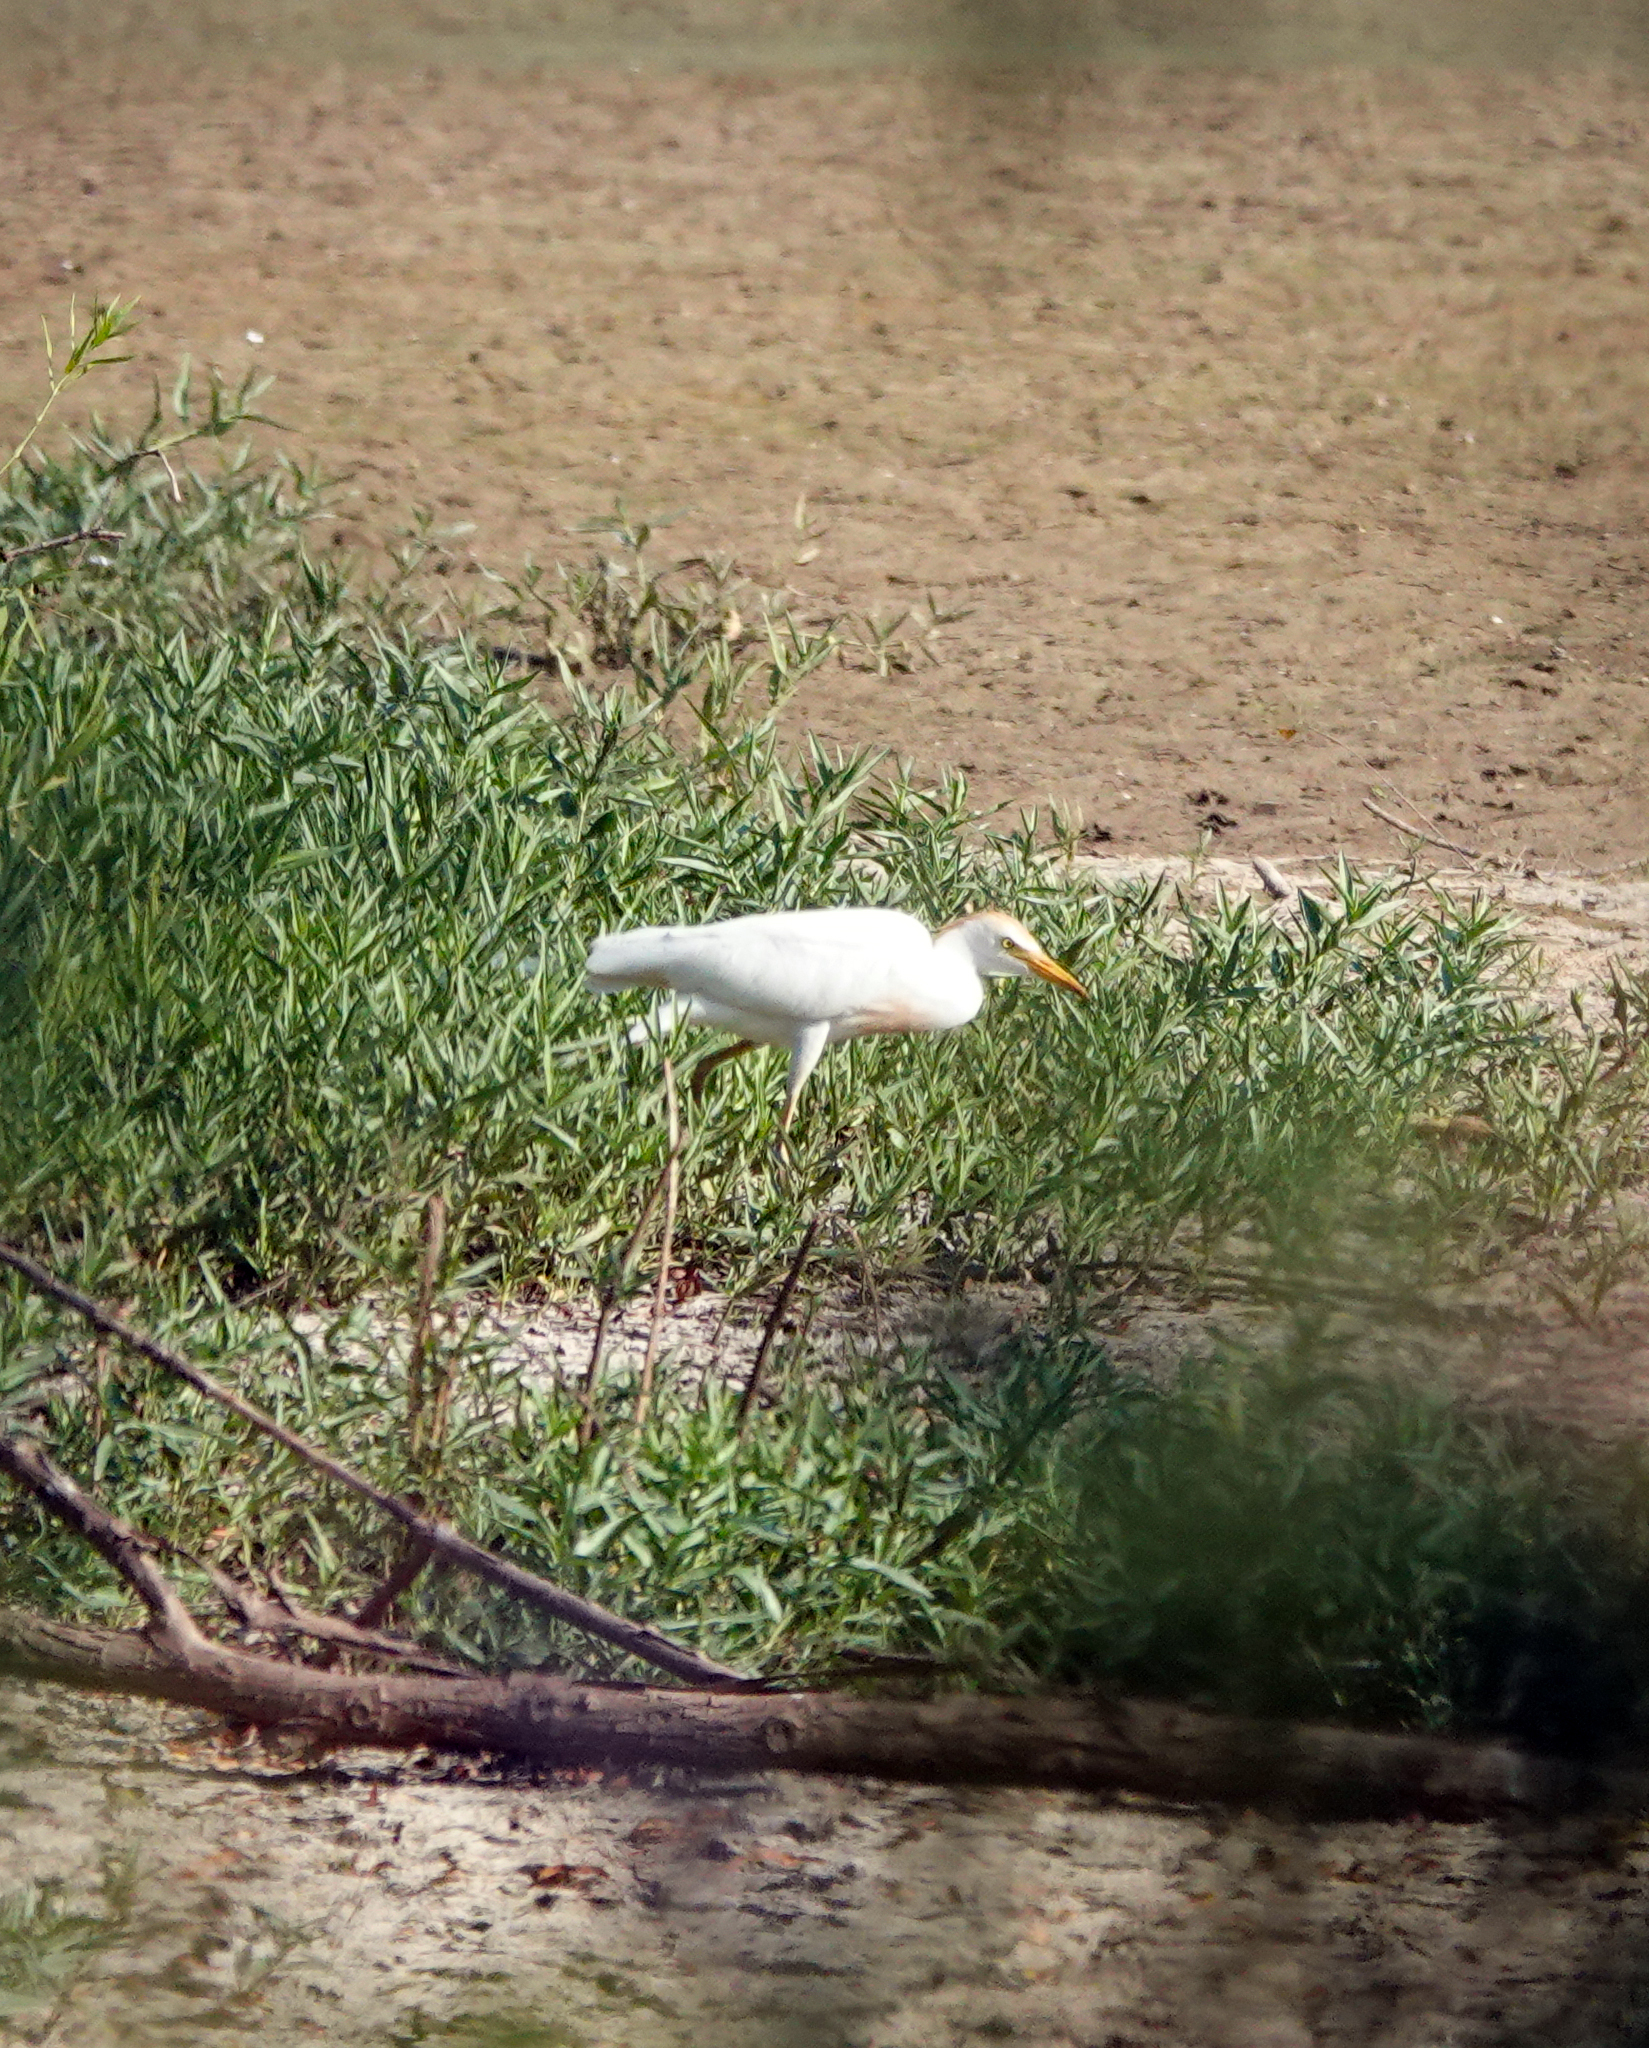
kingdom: Animalia
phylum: Chordata
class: Aves
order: Pelecaniformes
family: Ardeidae
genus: Bubulcus
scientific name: Bubulcus ibis
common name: Cattle egret
